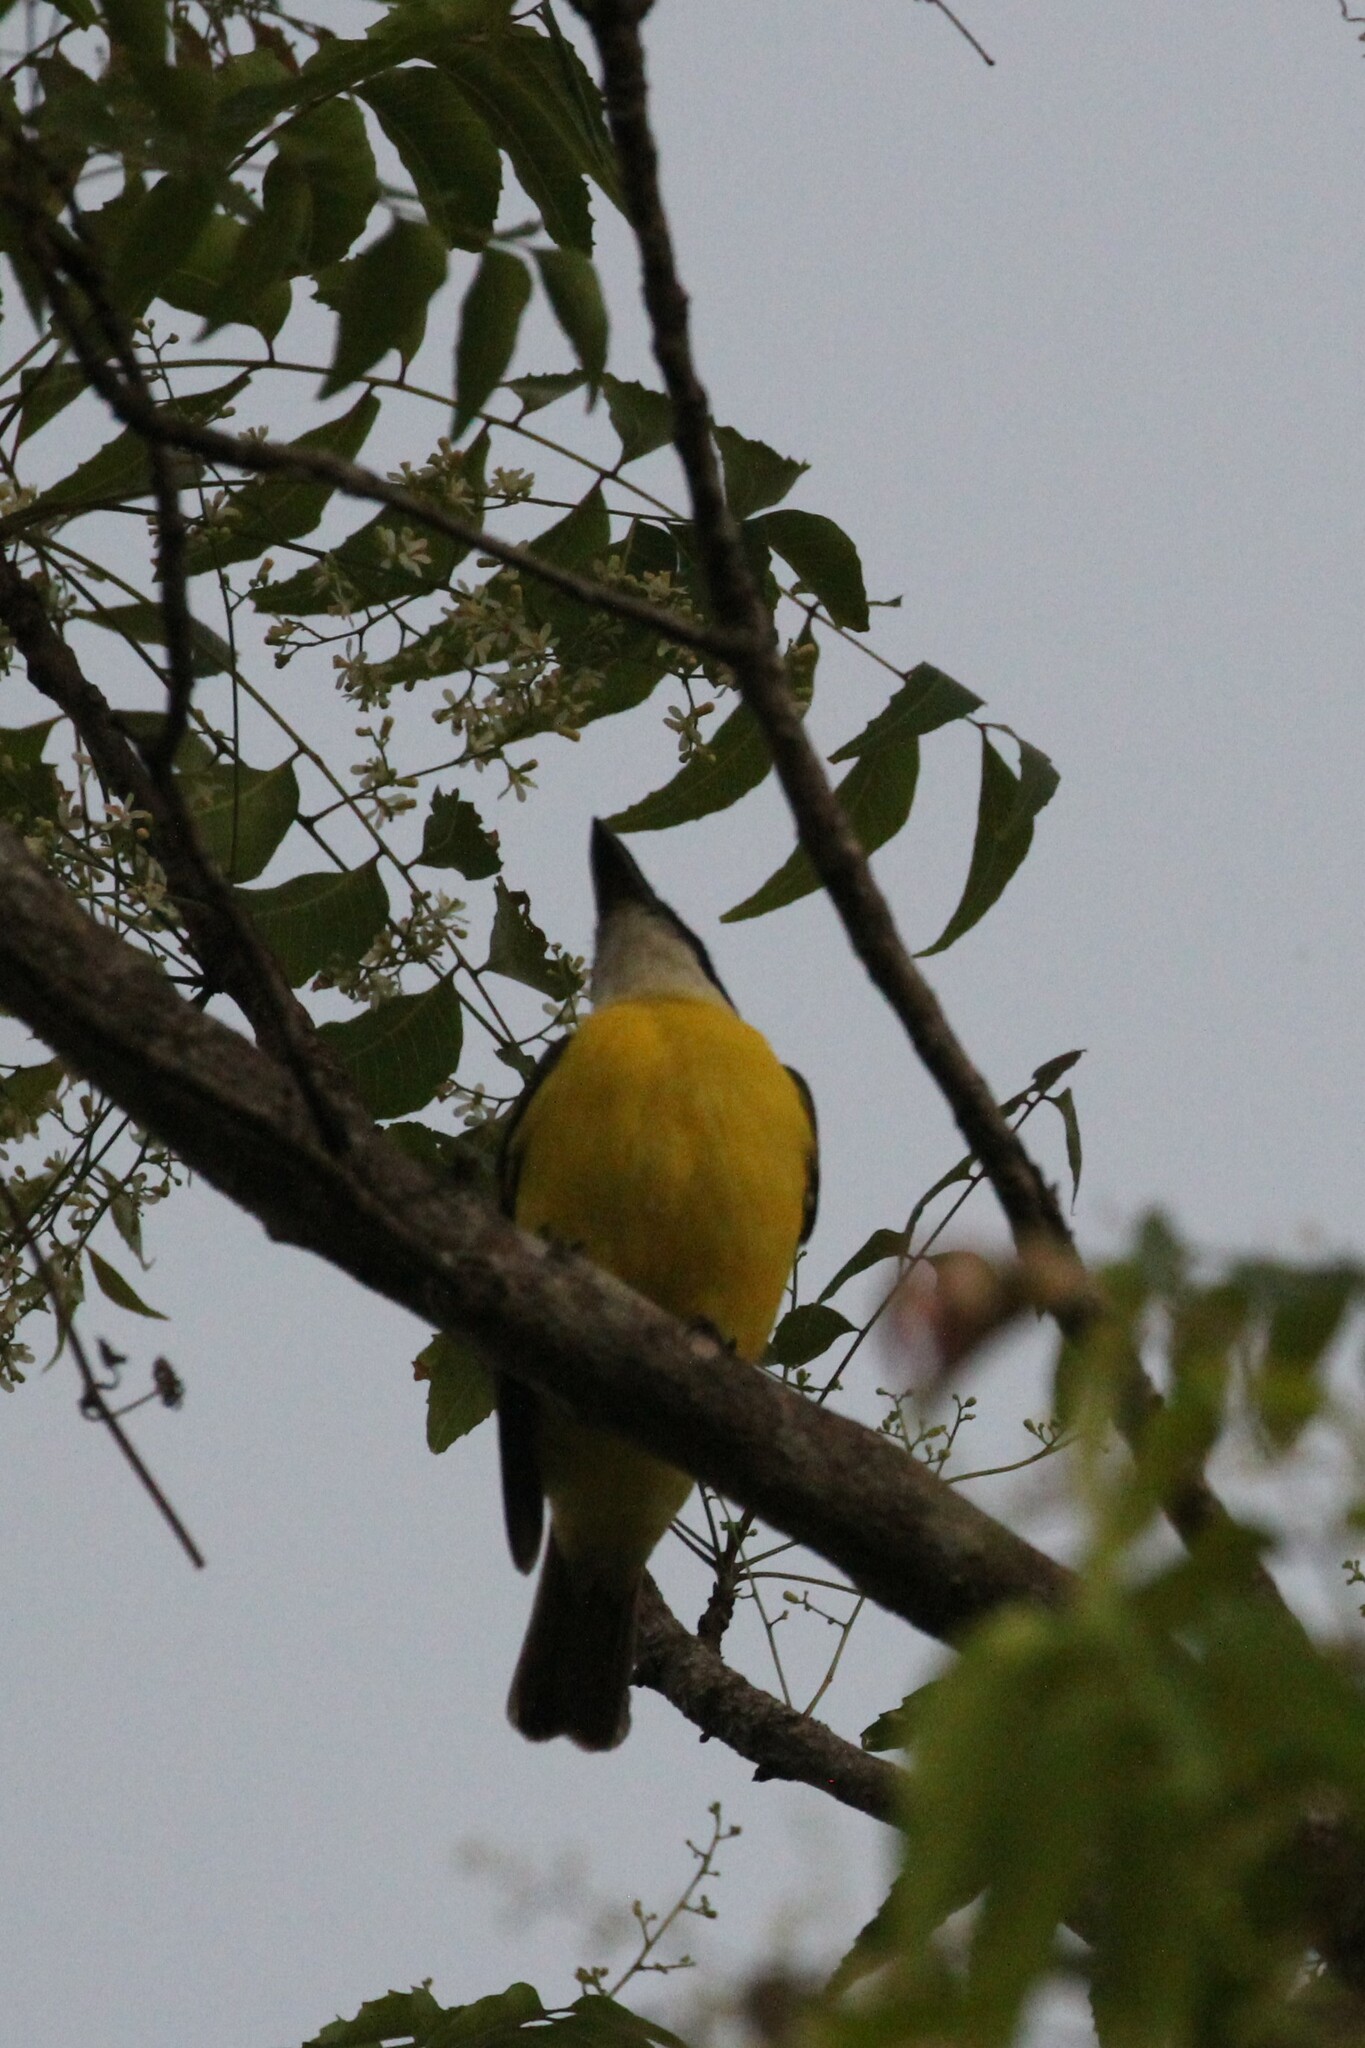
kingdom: Animalia
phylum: Chordata
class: Aves
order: Passeriformes
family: Tyrannidae
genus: Megarynchus
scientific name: Megarynchus pitangua
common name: Boat-billed flycatcher
